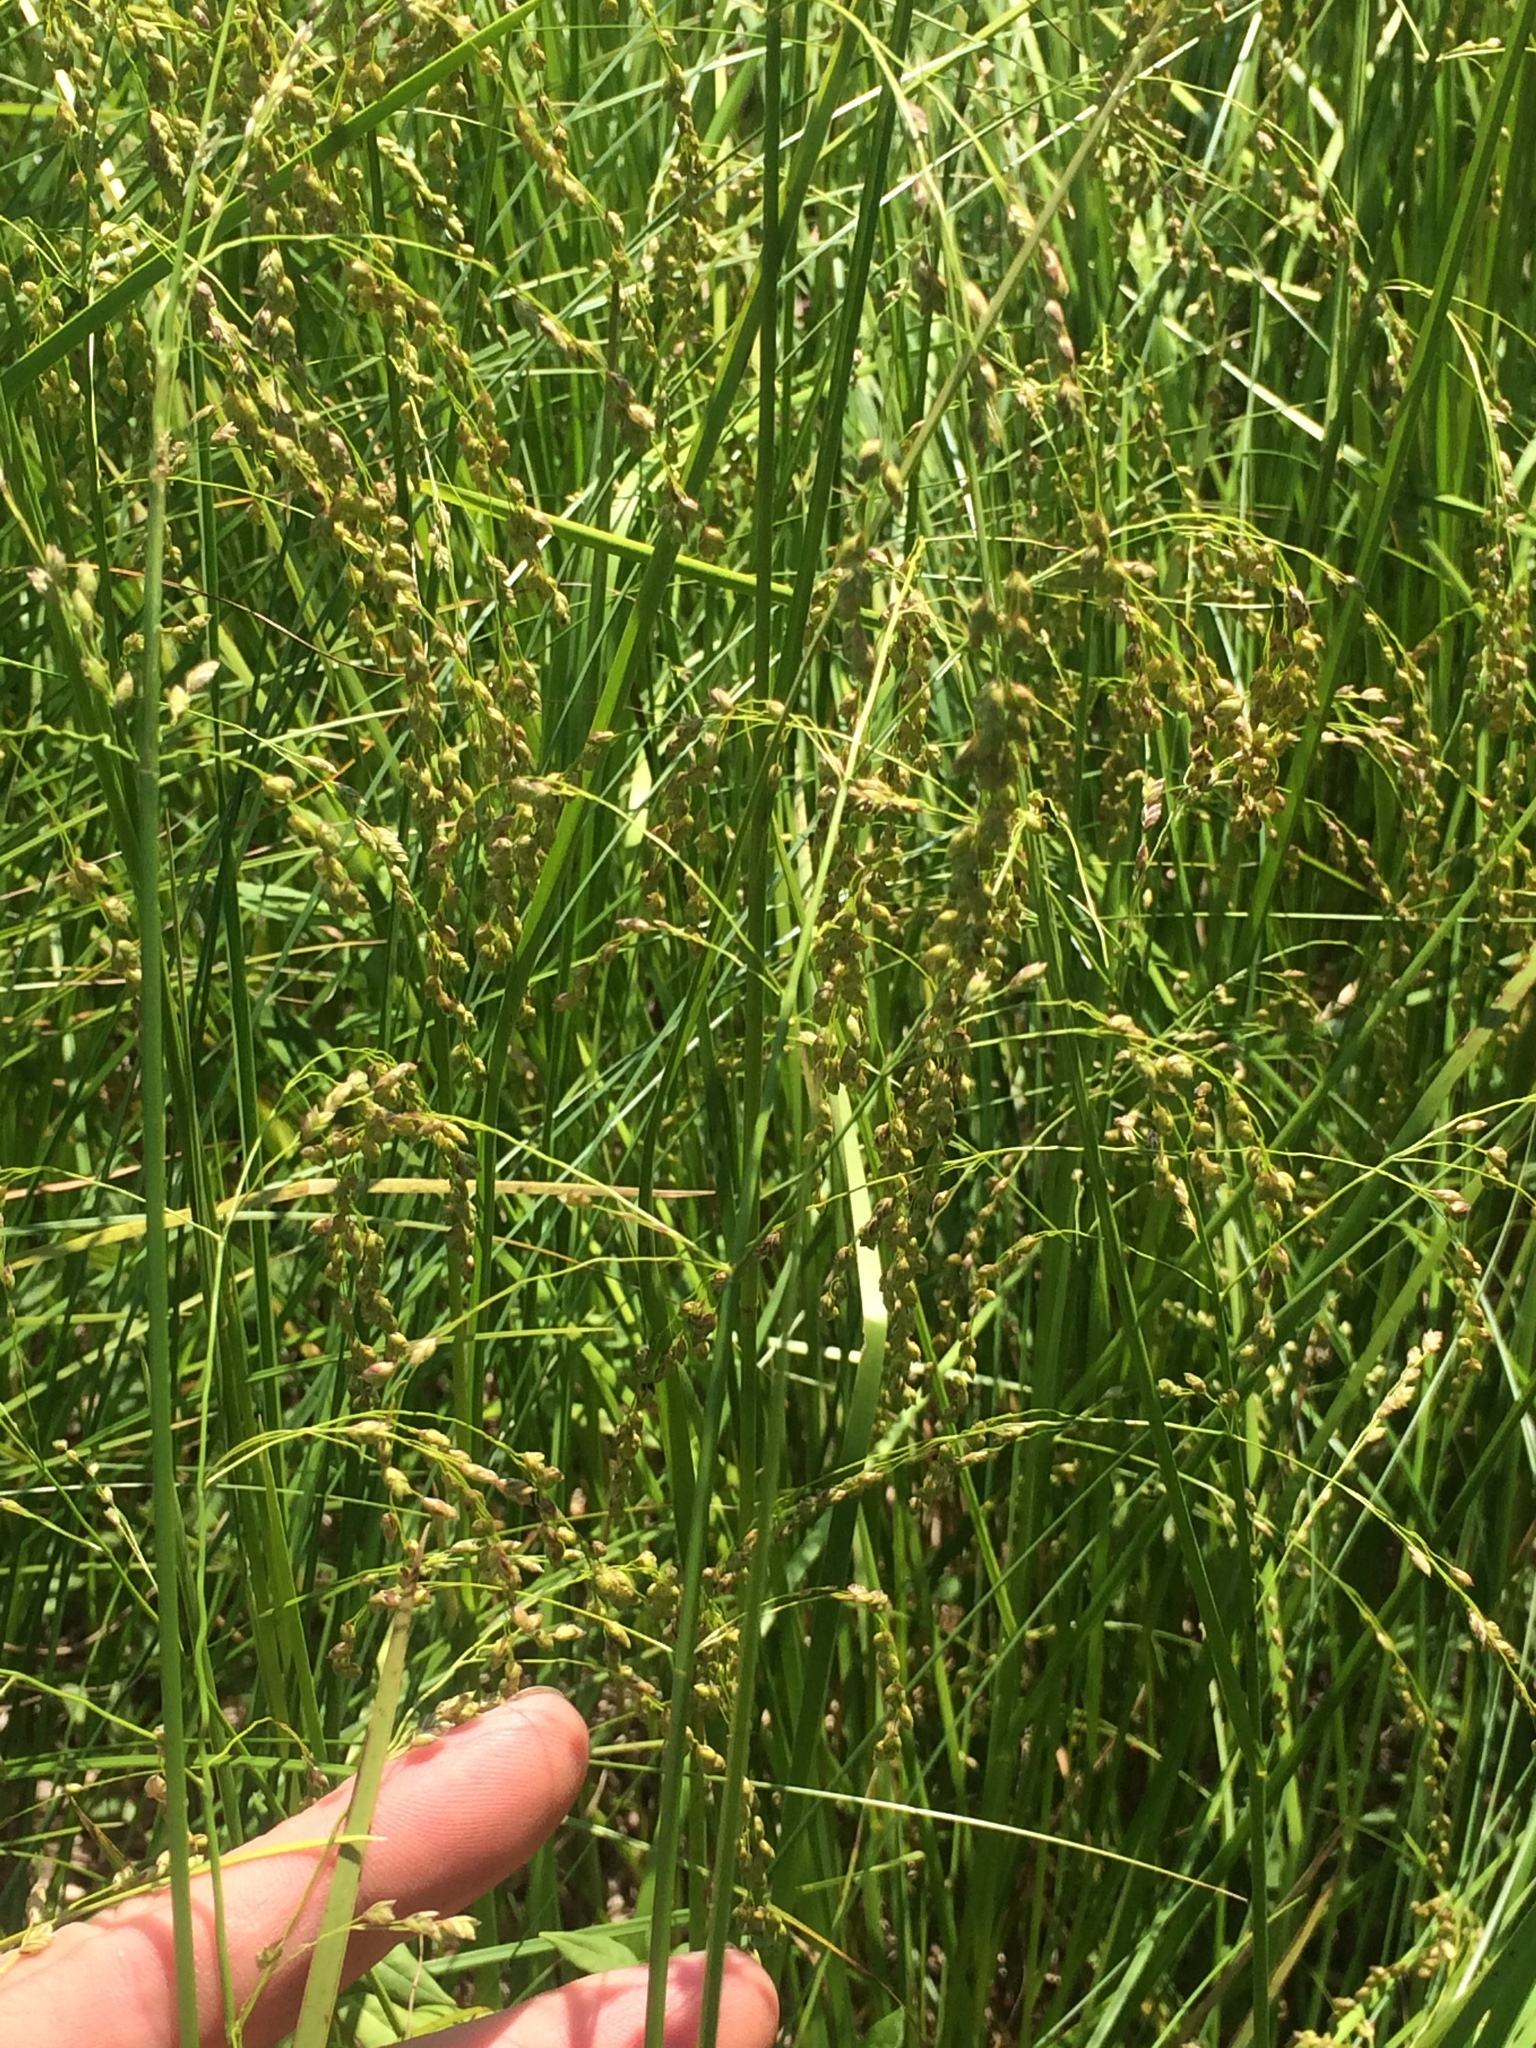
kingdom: Plantae
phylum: Tracheophyta
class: Liliopsida
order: Poales
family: Poaceae
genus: Glyceria
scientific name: Glyceria canadensis
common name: Canada mannagrass
